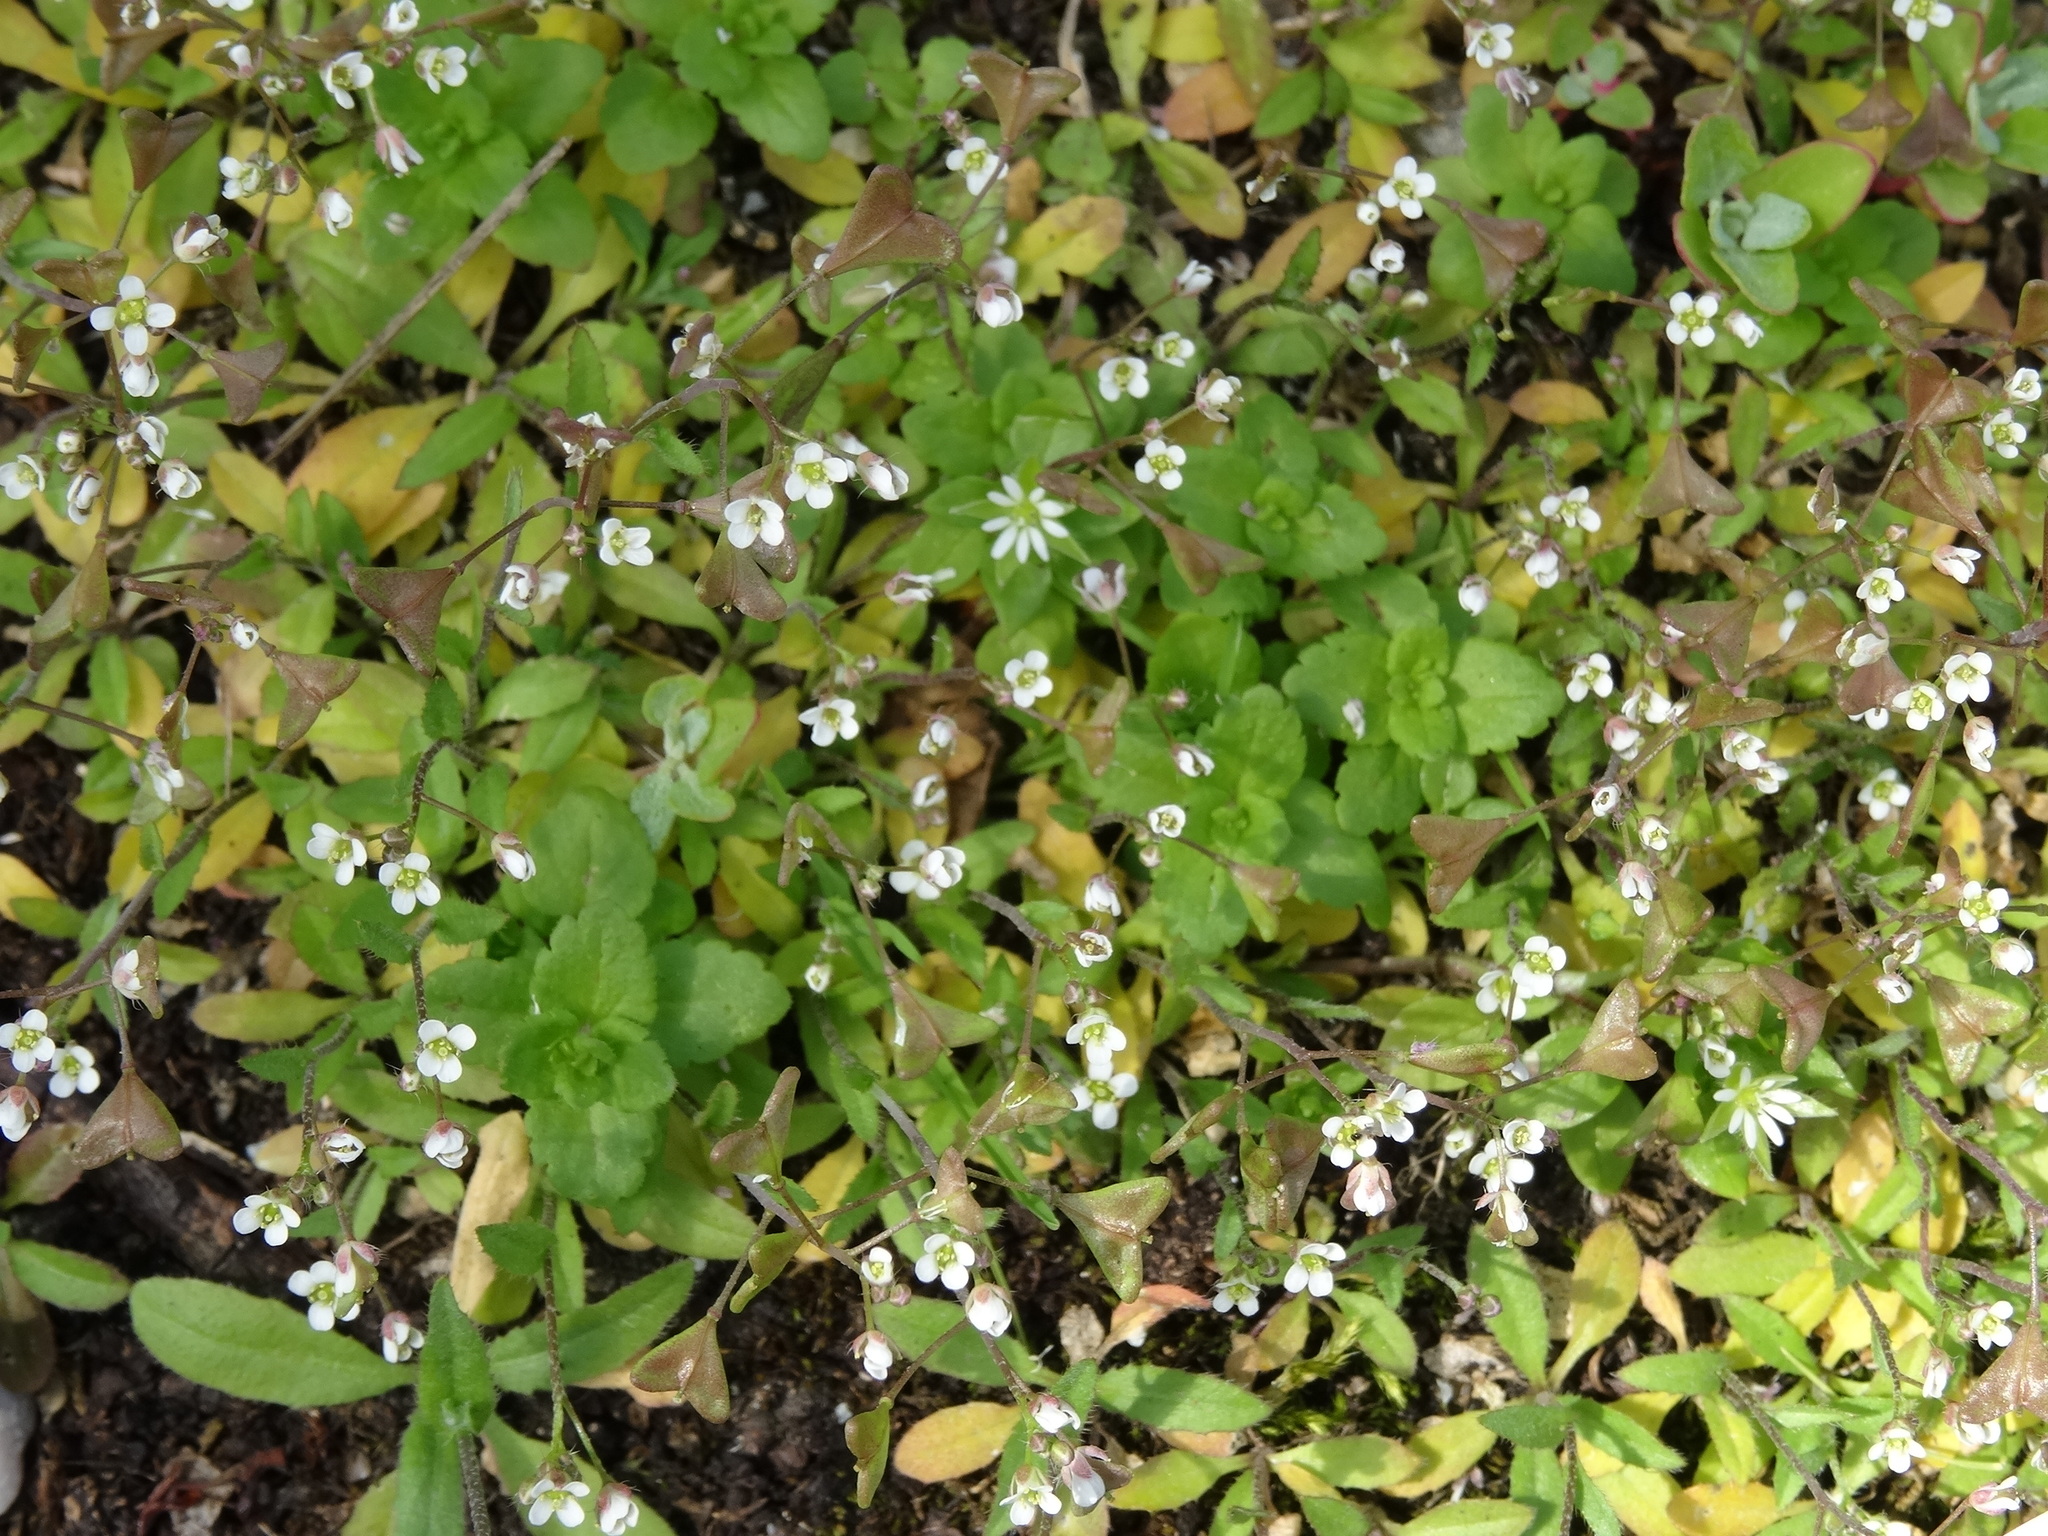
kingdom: Plantae
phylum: Tracheophyta
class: Magnoliopsida
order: Brassicales
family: Brassicaceae
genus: Capsella
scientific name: Capsella bursa-pastoris
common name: Shepherd's purse
